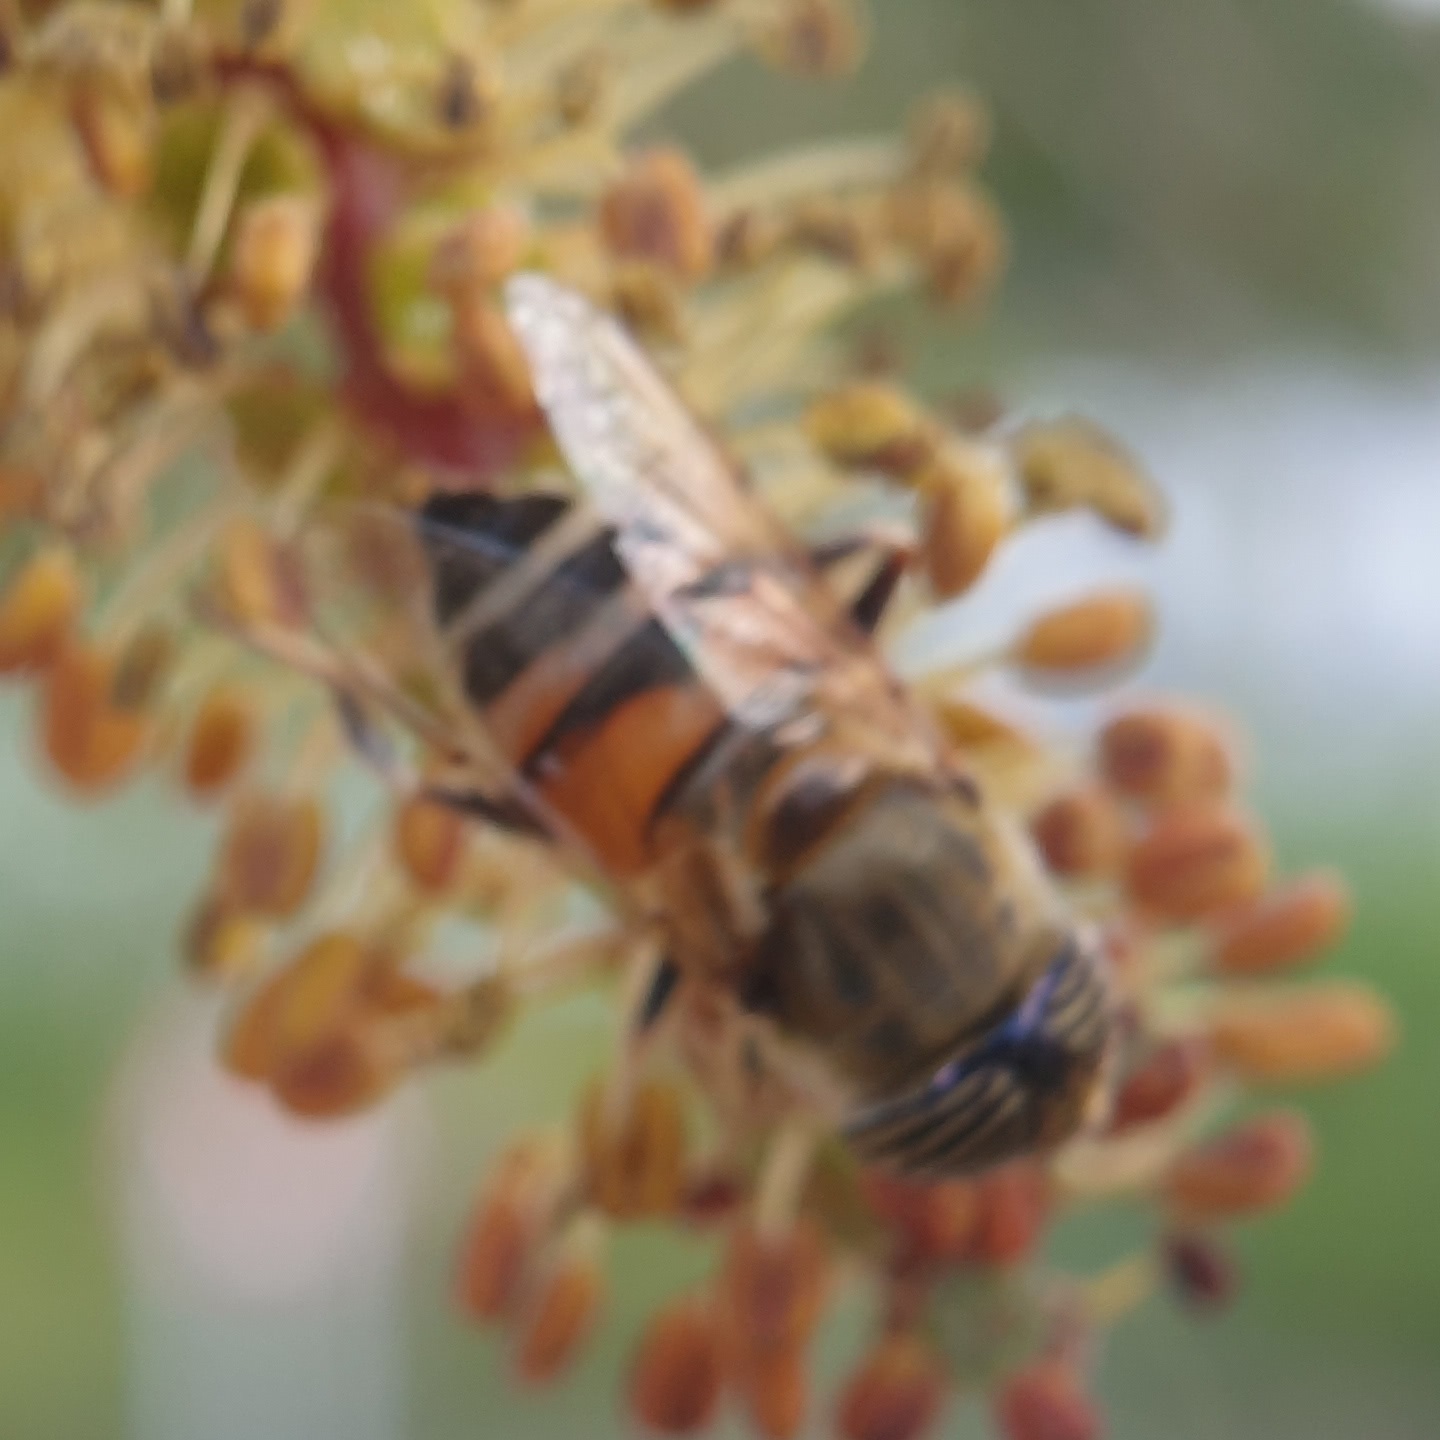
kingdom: Animalia
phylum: Arthropoda
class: Insecta
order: Diptera
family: Syrphidae
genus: Eristalinus
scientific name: Eristalinus taeniops
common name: Syrphid fly
